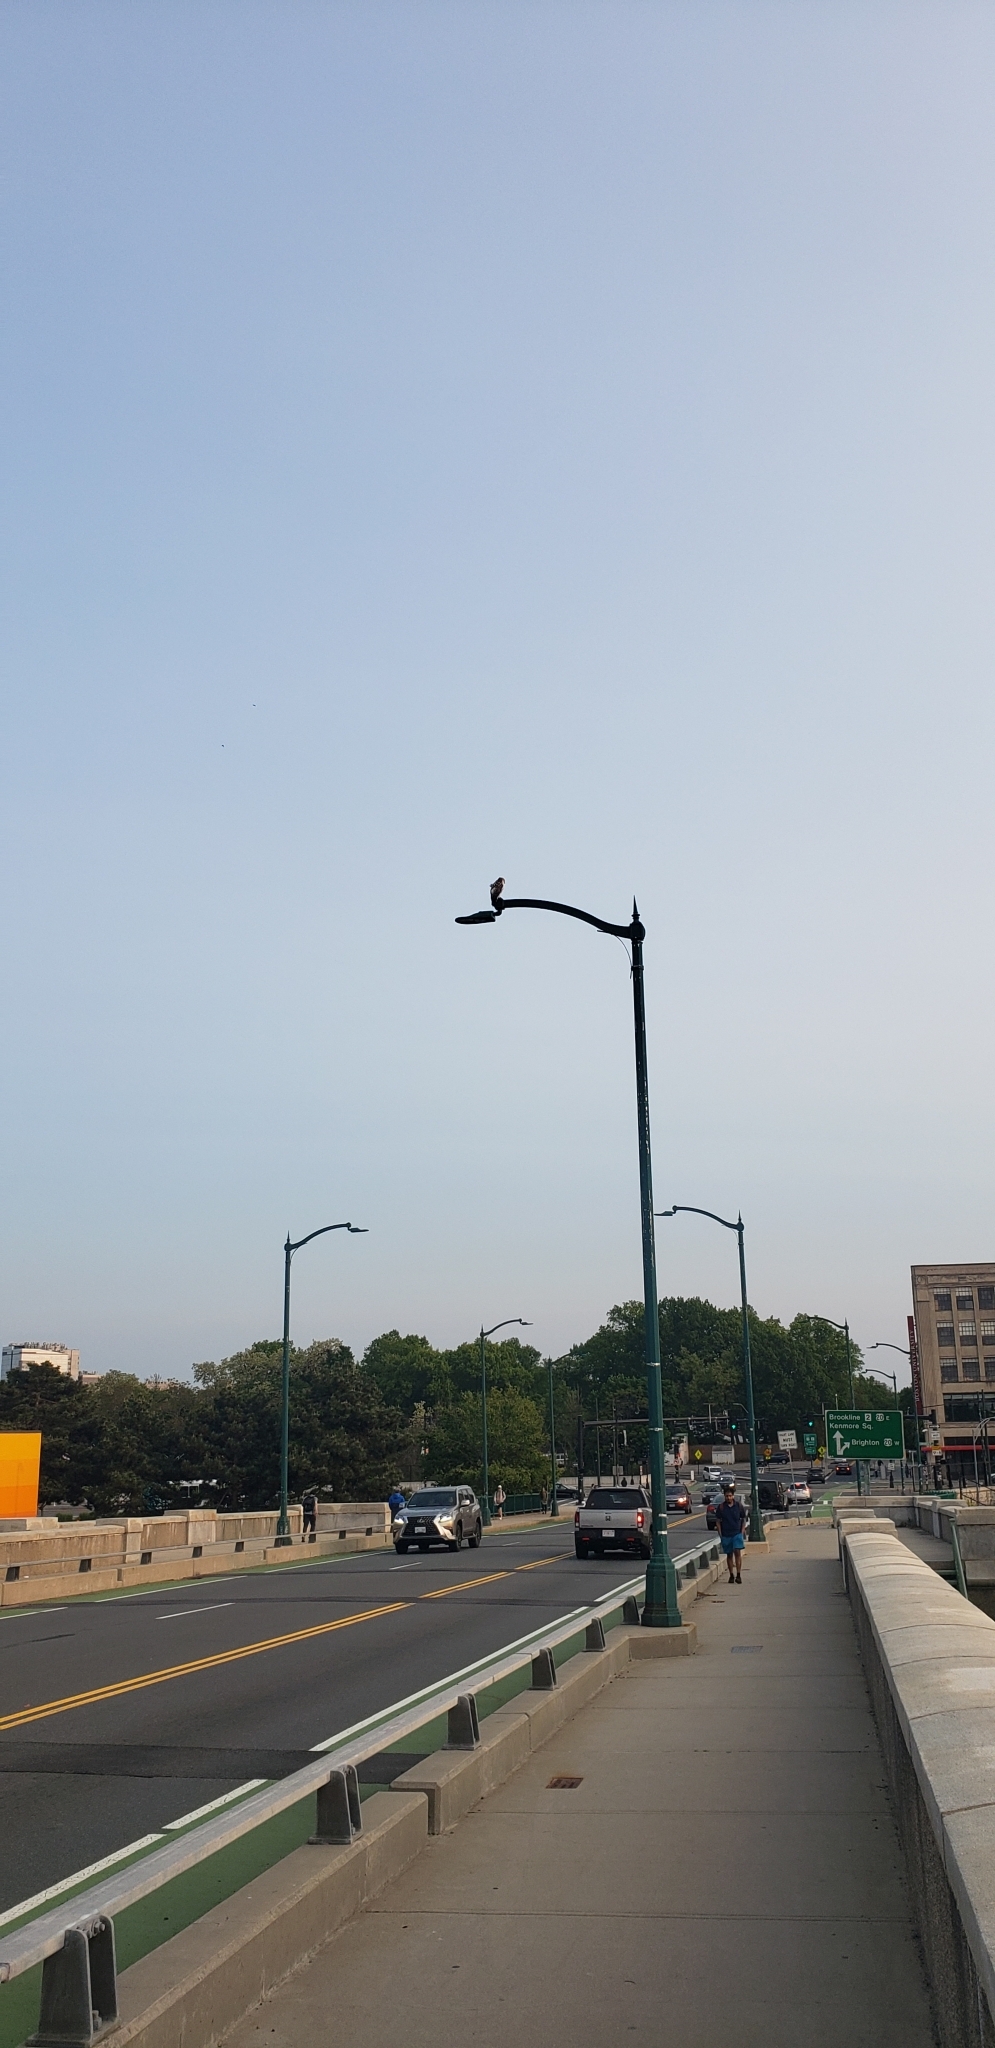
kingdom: Animalia
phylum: Chordata
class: Aves
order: Accipitriformes
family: Accipitridae
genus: Buteo
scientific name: Buteo jamaicensis
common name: Red-tailed hawk
